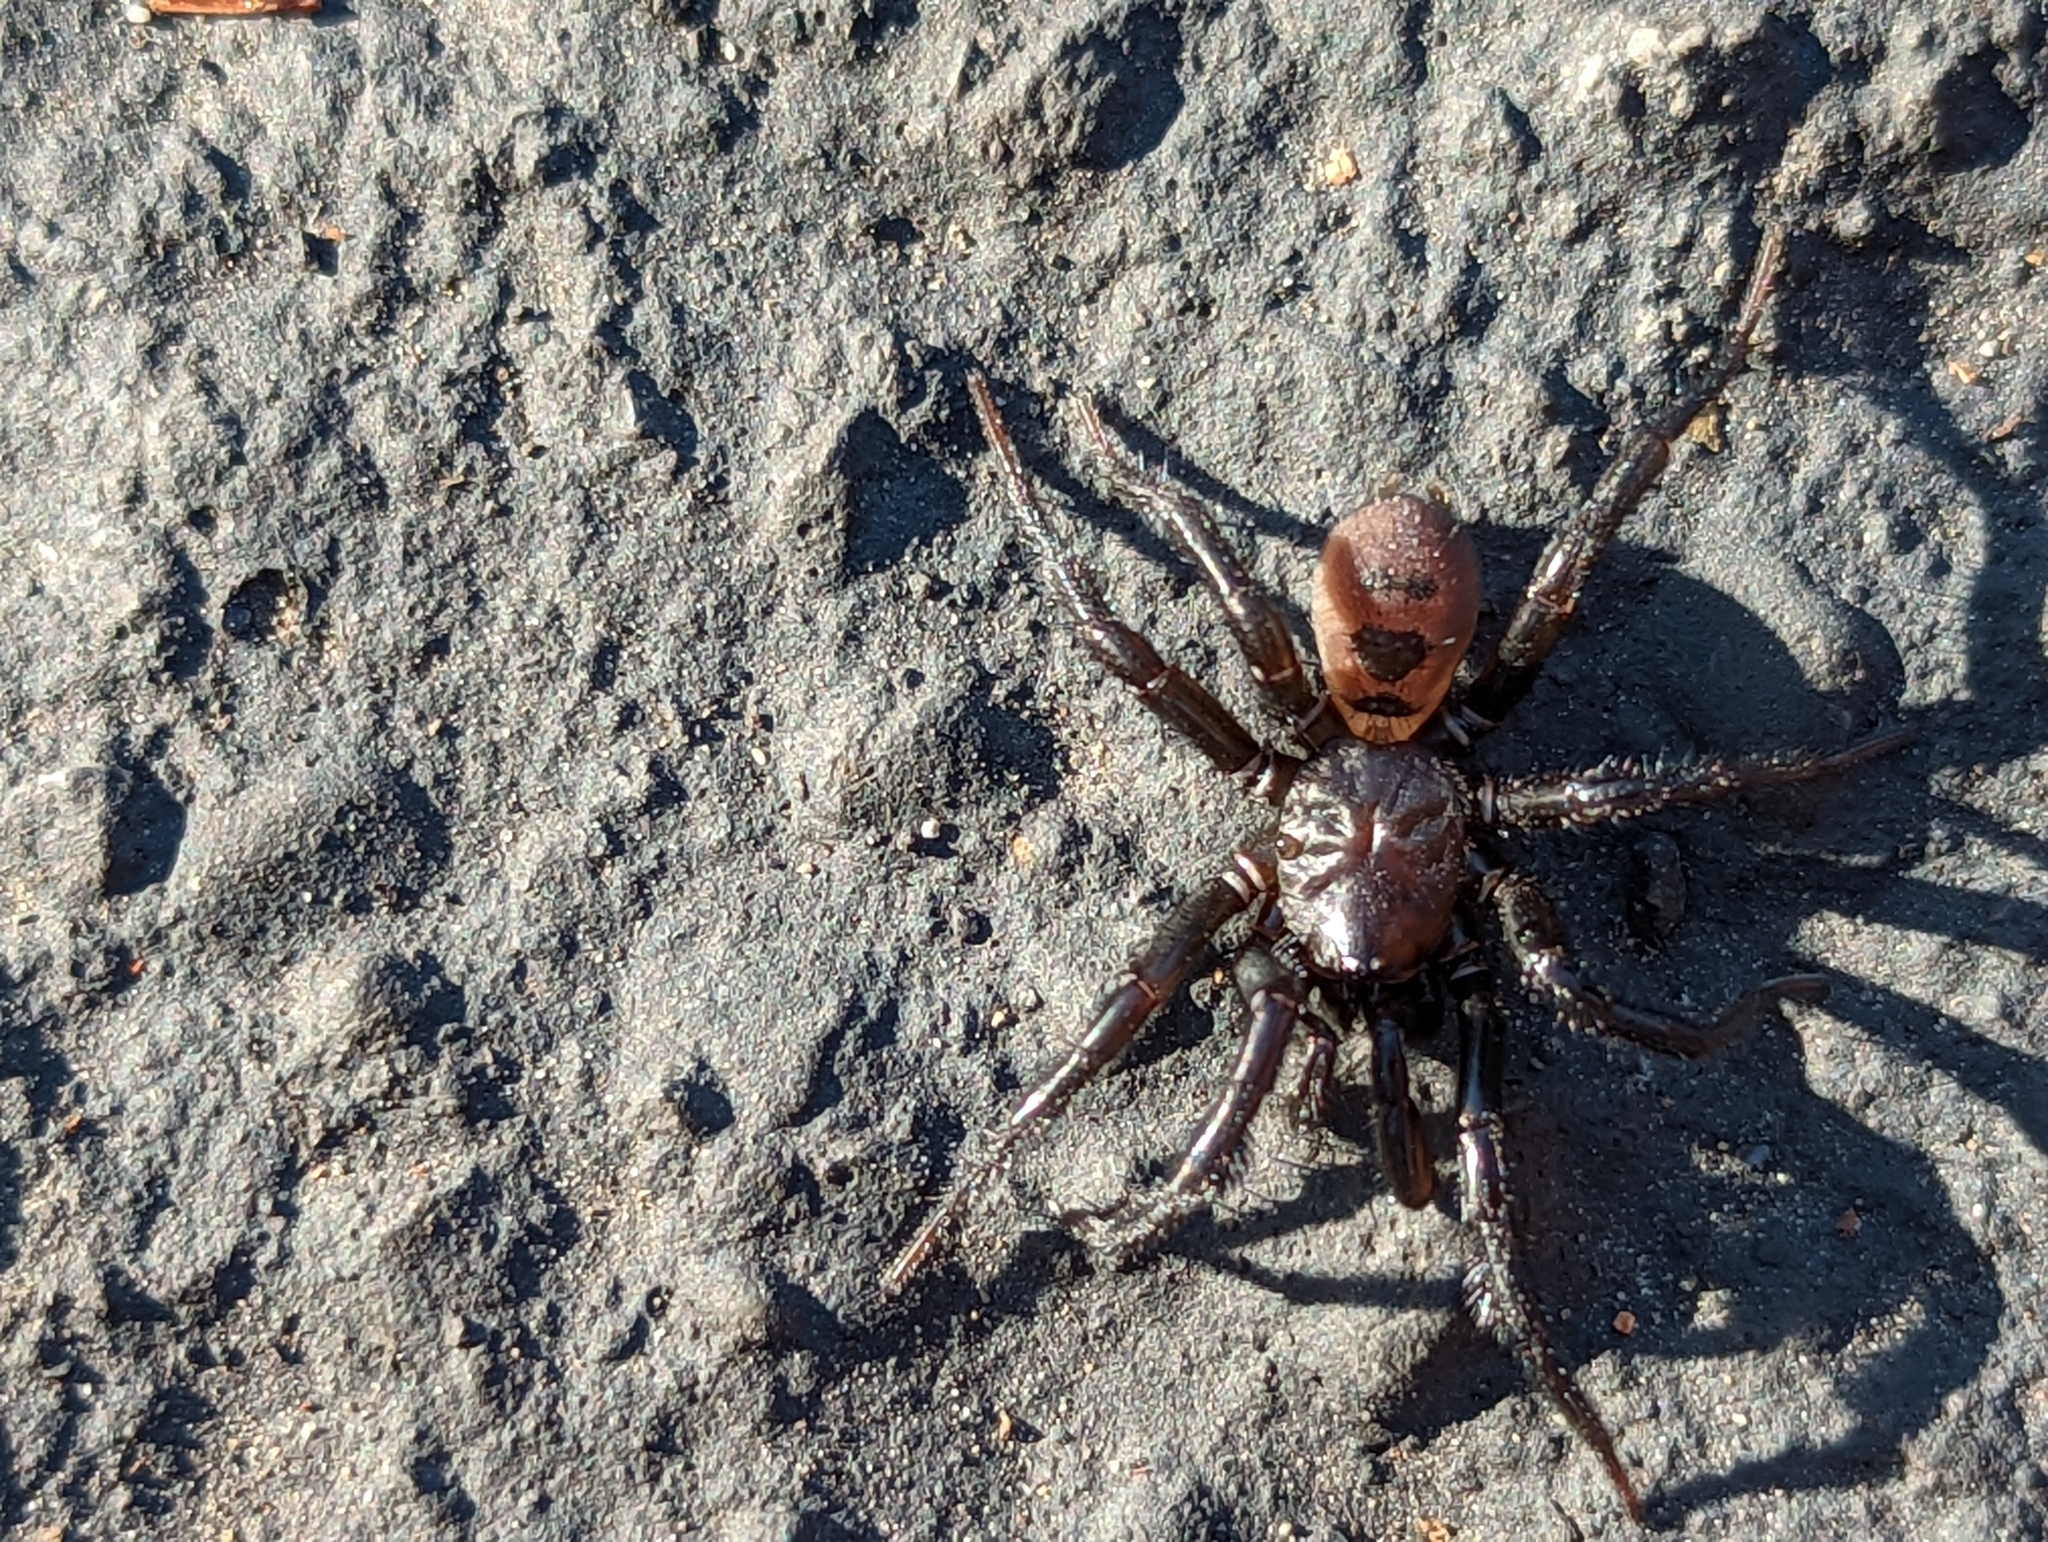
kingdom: Animalia
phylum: Arthropoda
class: Arachnida
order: Araneae
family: Antrodiaetidae
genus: Antrodiaetus
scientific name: Antrodiaetus pacificus
